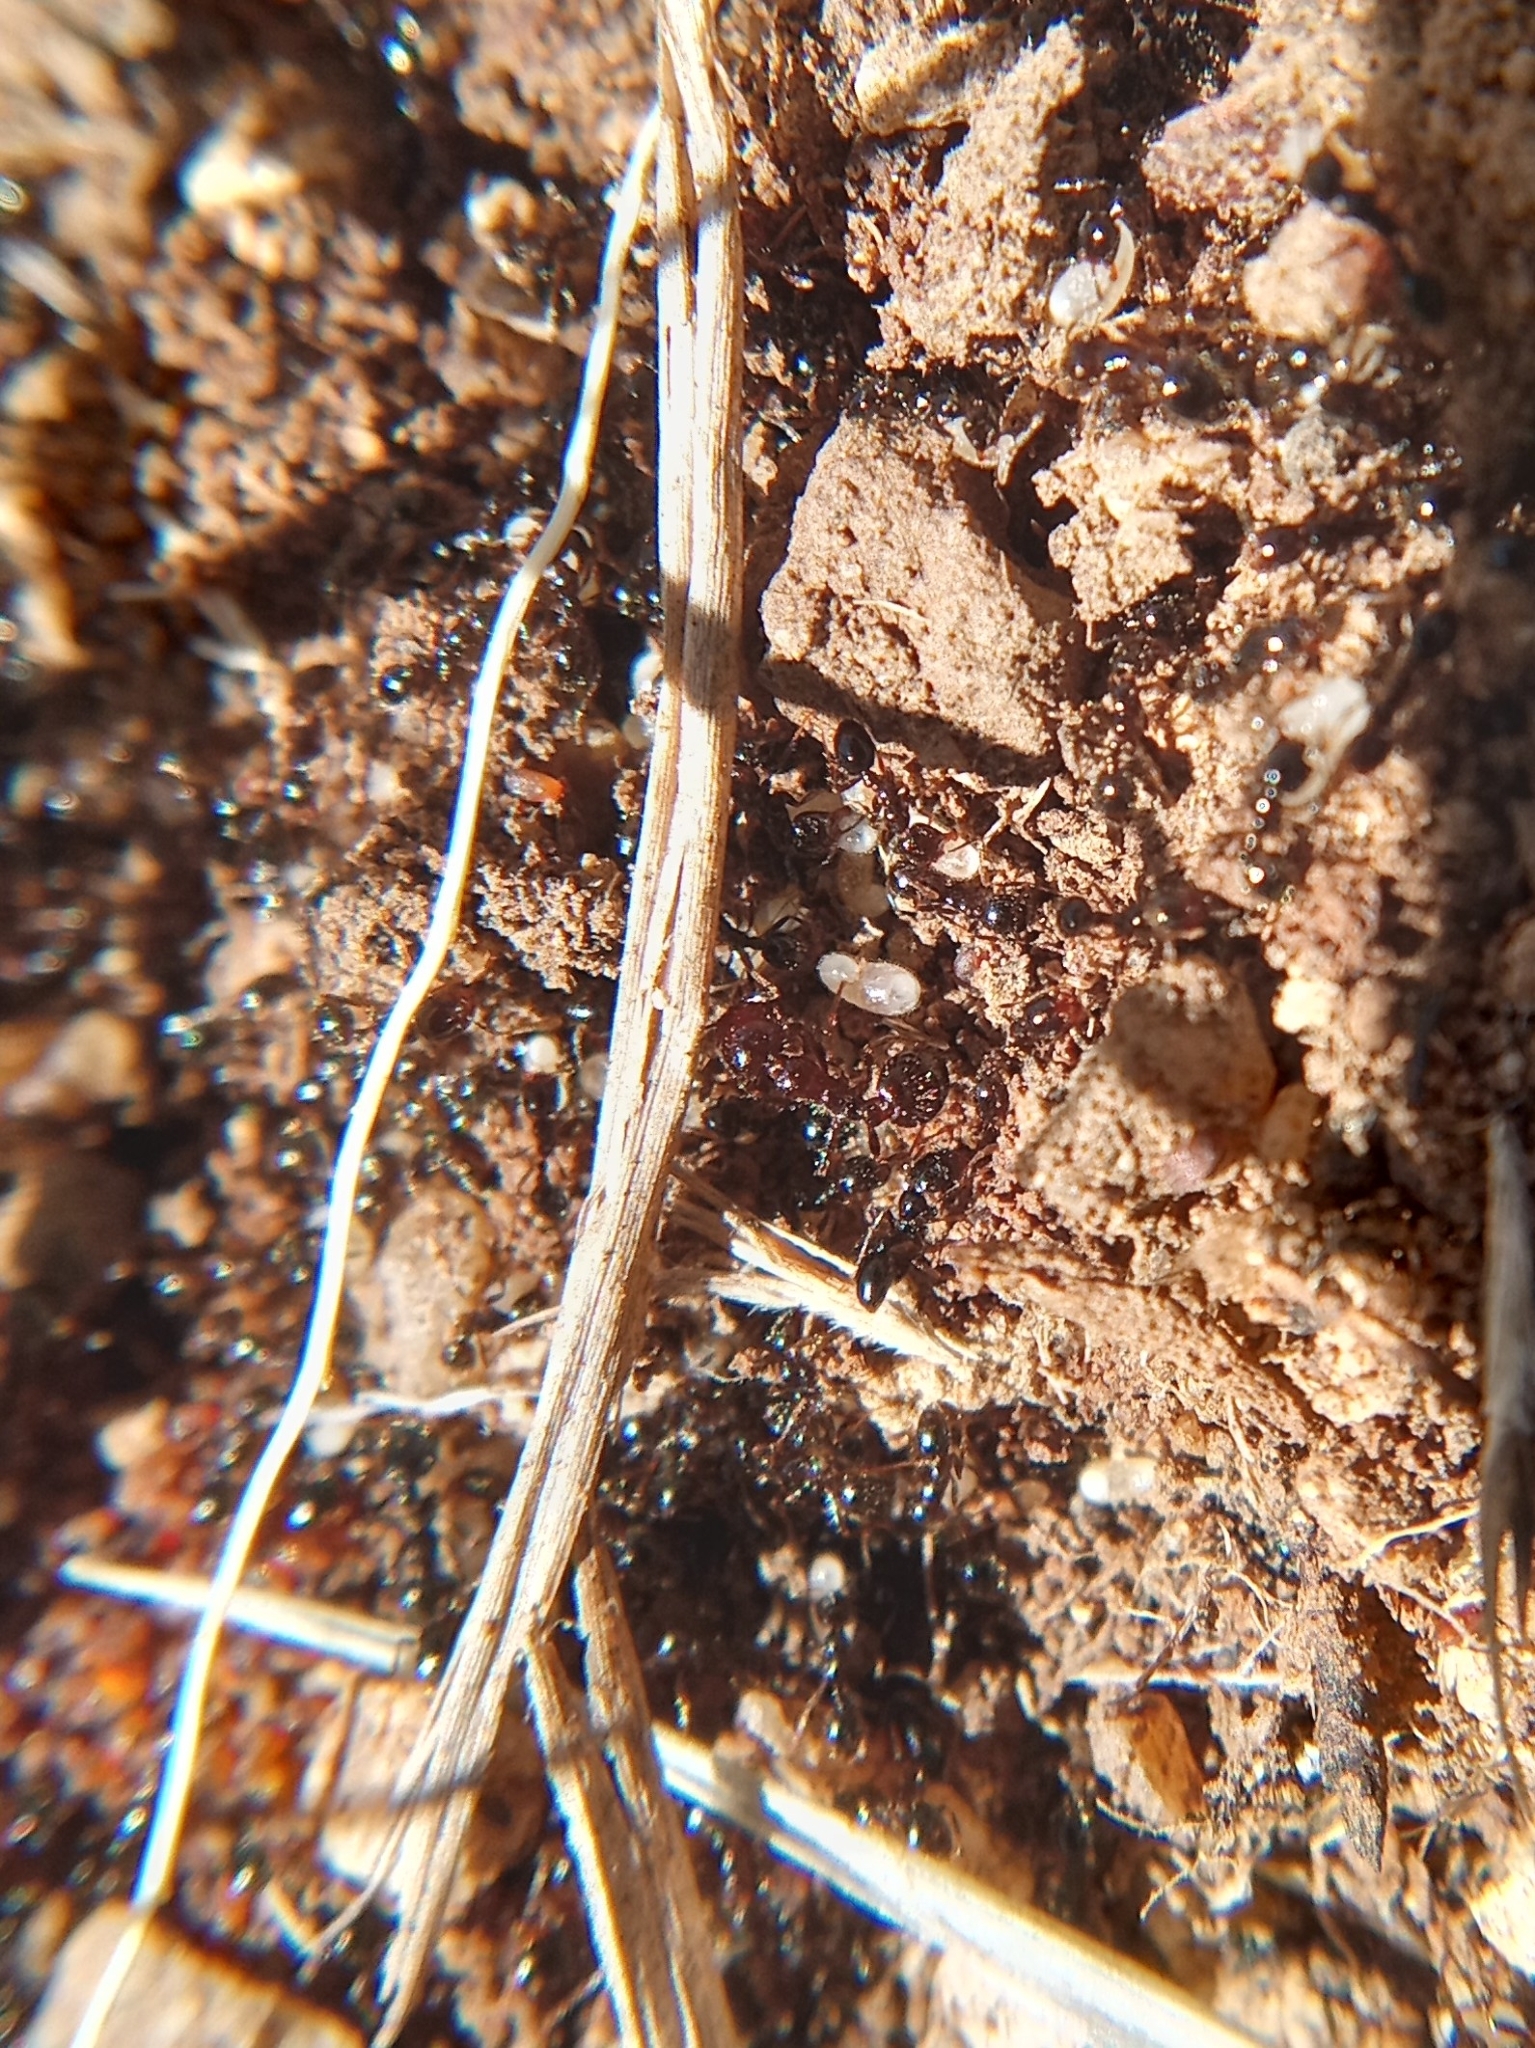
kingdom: Animalia
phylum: Arthropoda
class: Insecta
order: Hymenoptera
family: Formicidae
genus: Solenopsis
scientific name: Solenopsis xyloni
